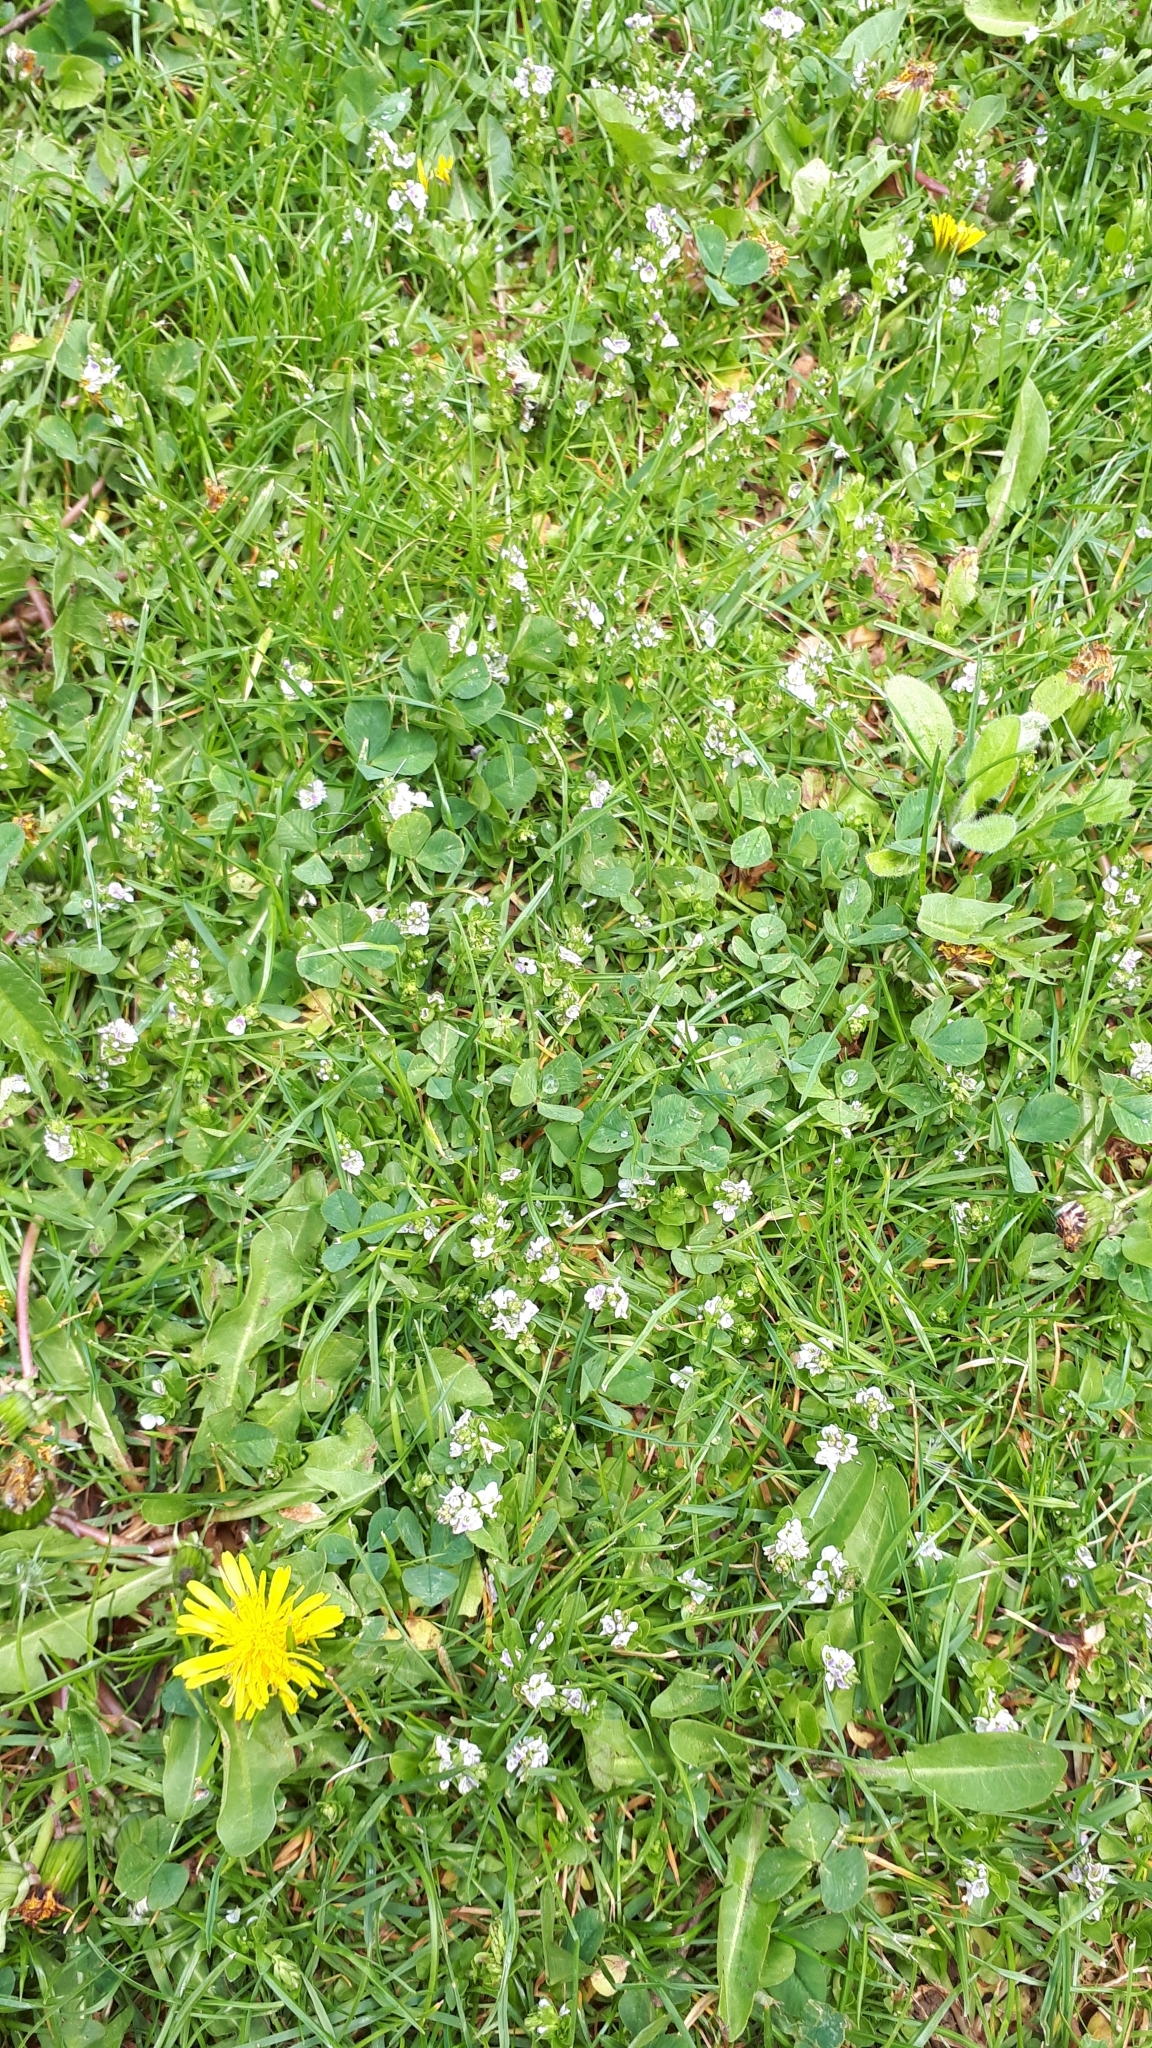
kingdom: Plantae
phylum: Tracheophyta
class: Magnoliopsida
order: Lamiales
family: Plantaginaceae
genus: Veronica
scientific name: Veronica serpyllifolia
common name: Thyme-leaved speedwell
